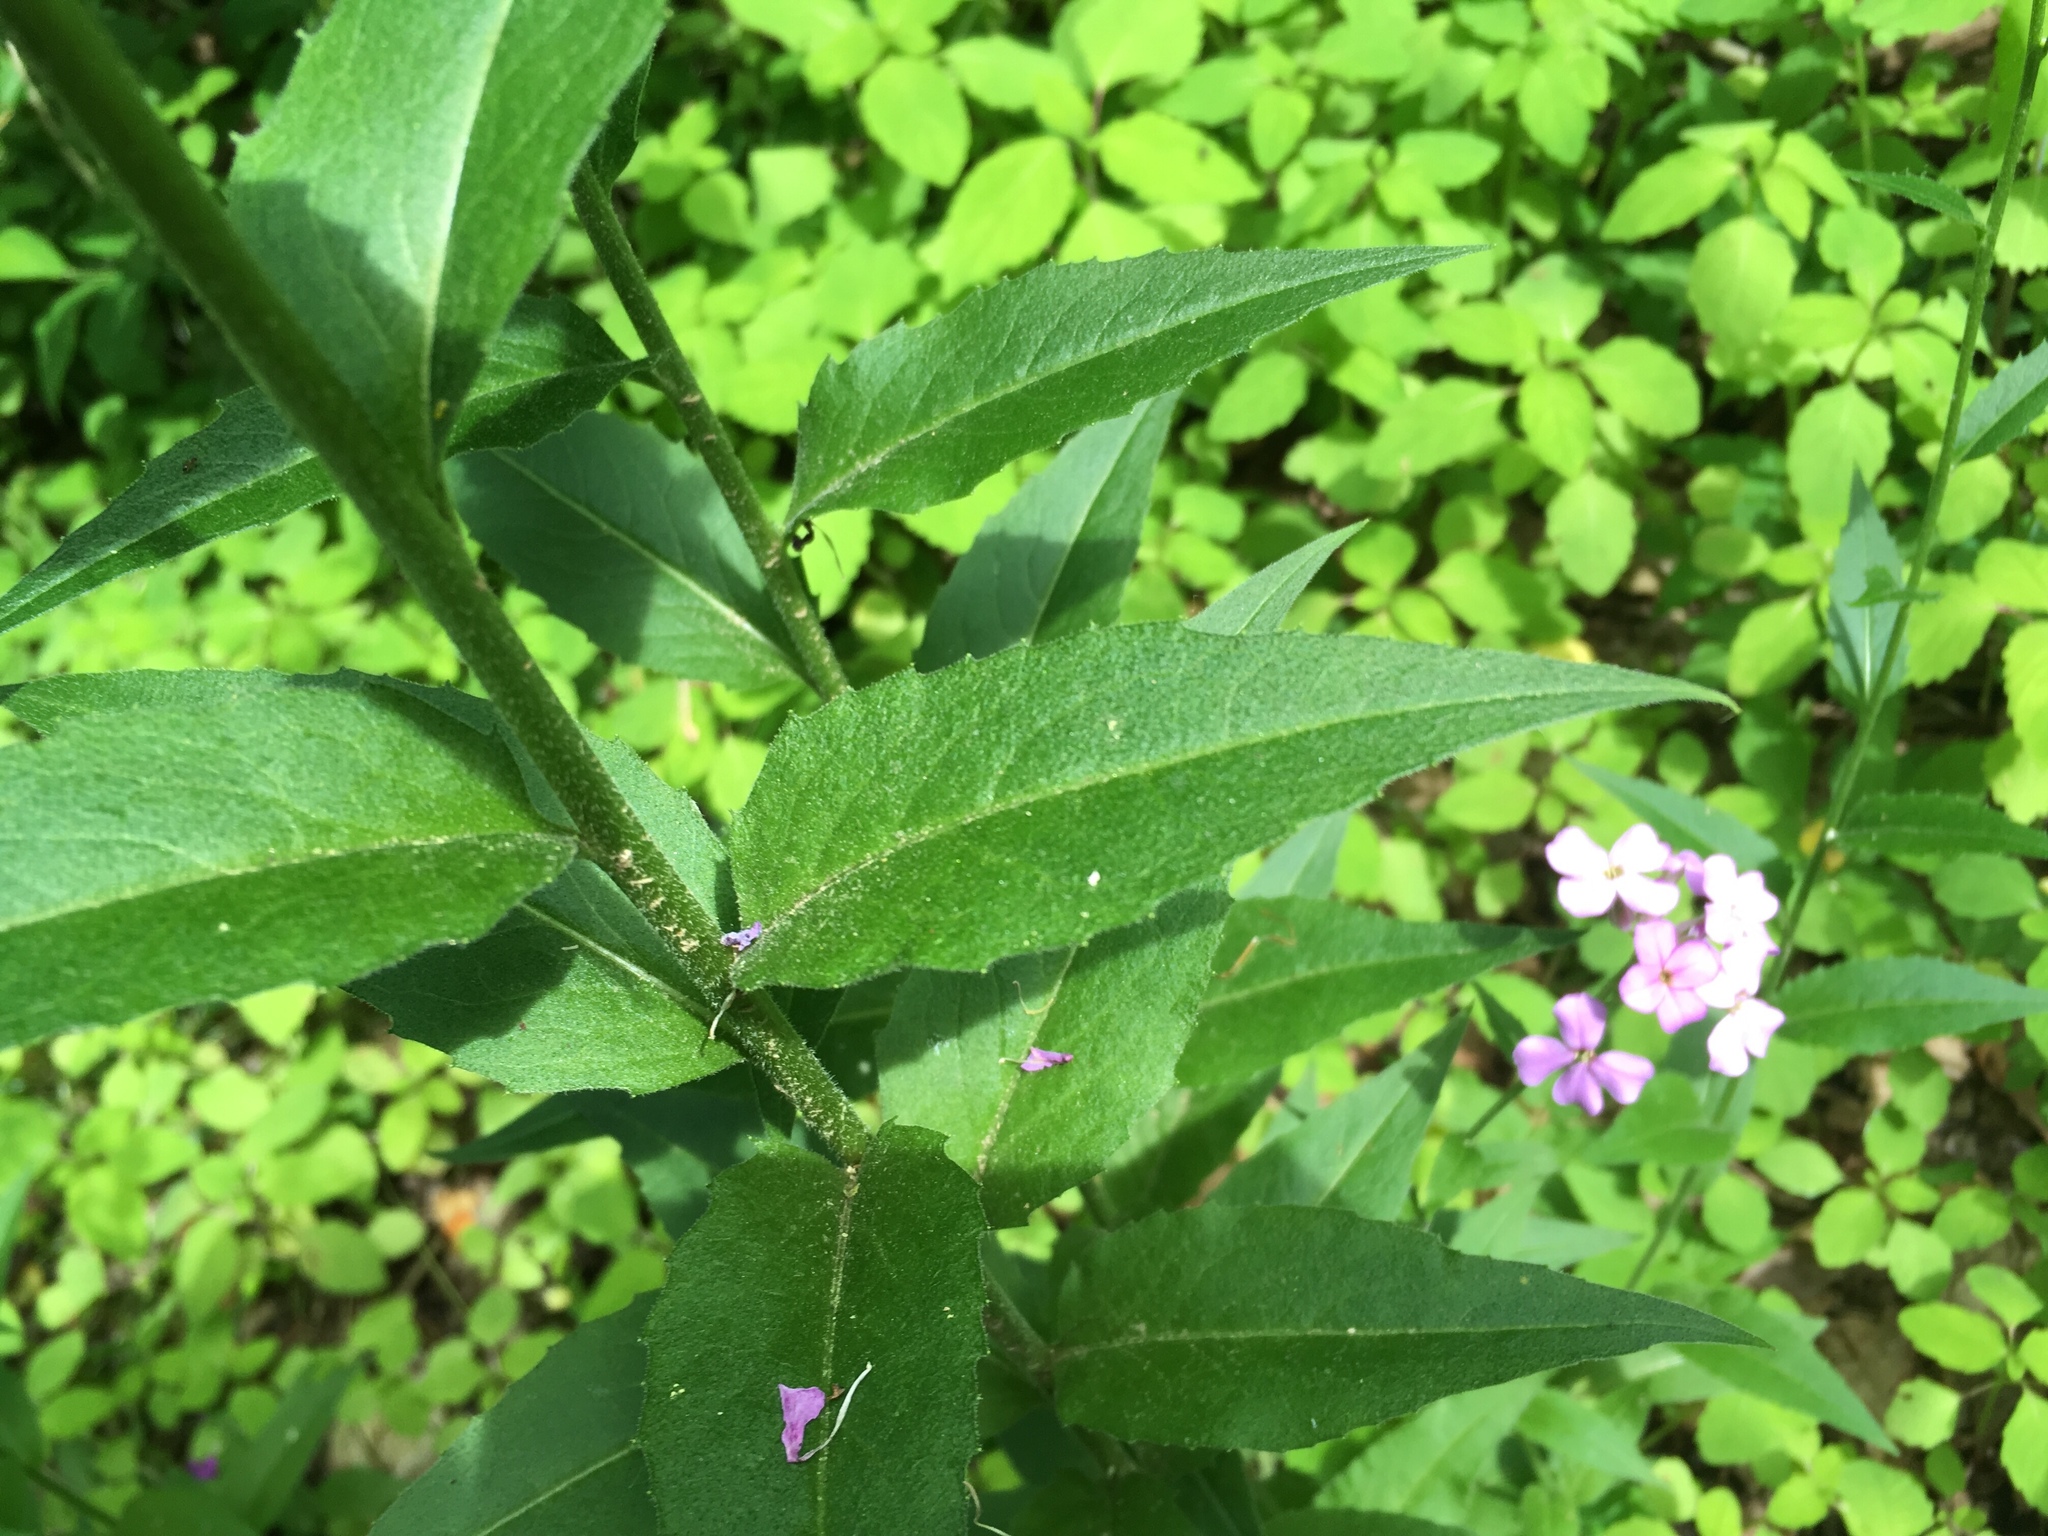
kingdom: Plantae
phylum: Tracheophyta
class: Magnoliopsida
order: Brassicales
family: Brassicaceae
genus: Hesperis
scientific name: Hesperis matronalis
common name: Dame's-violet
